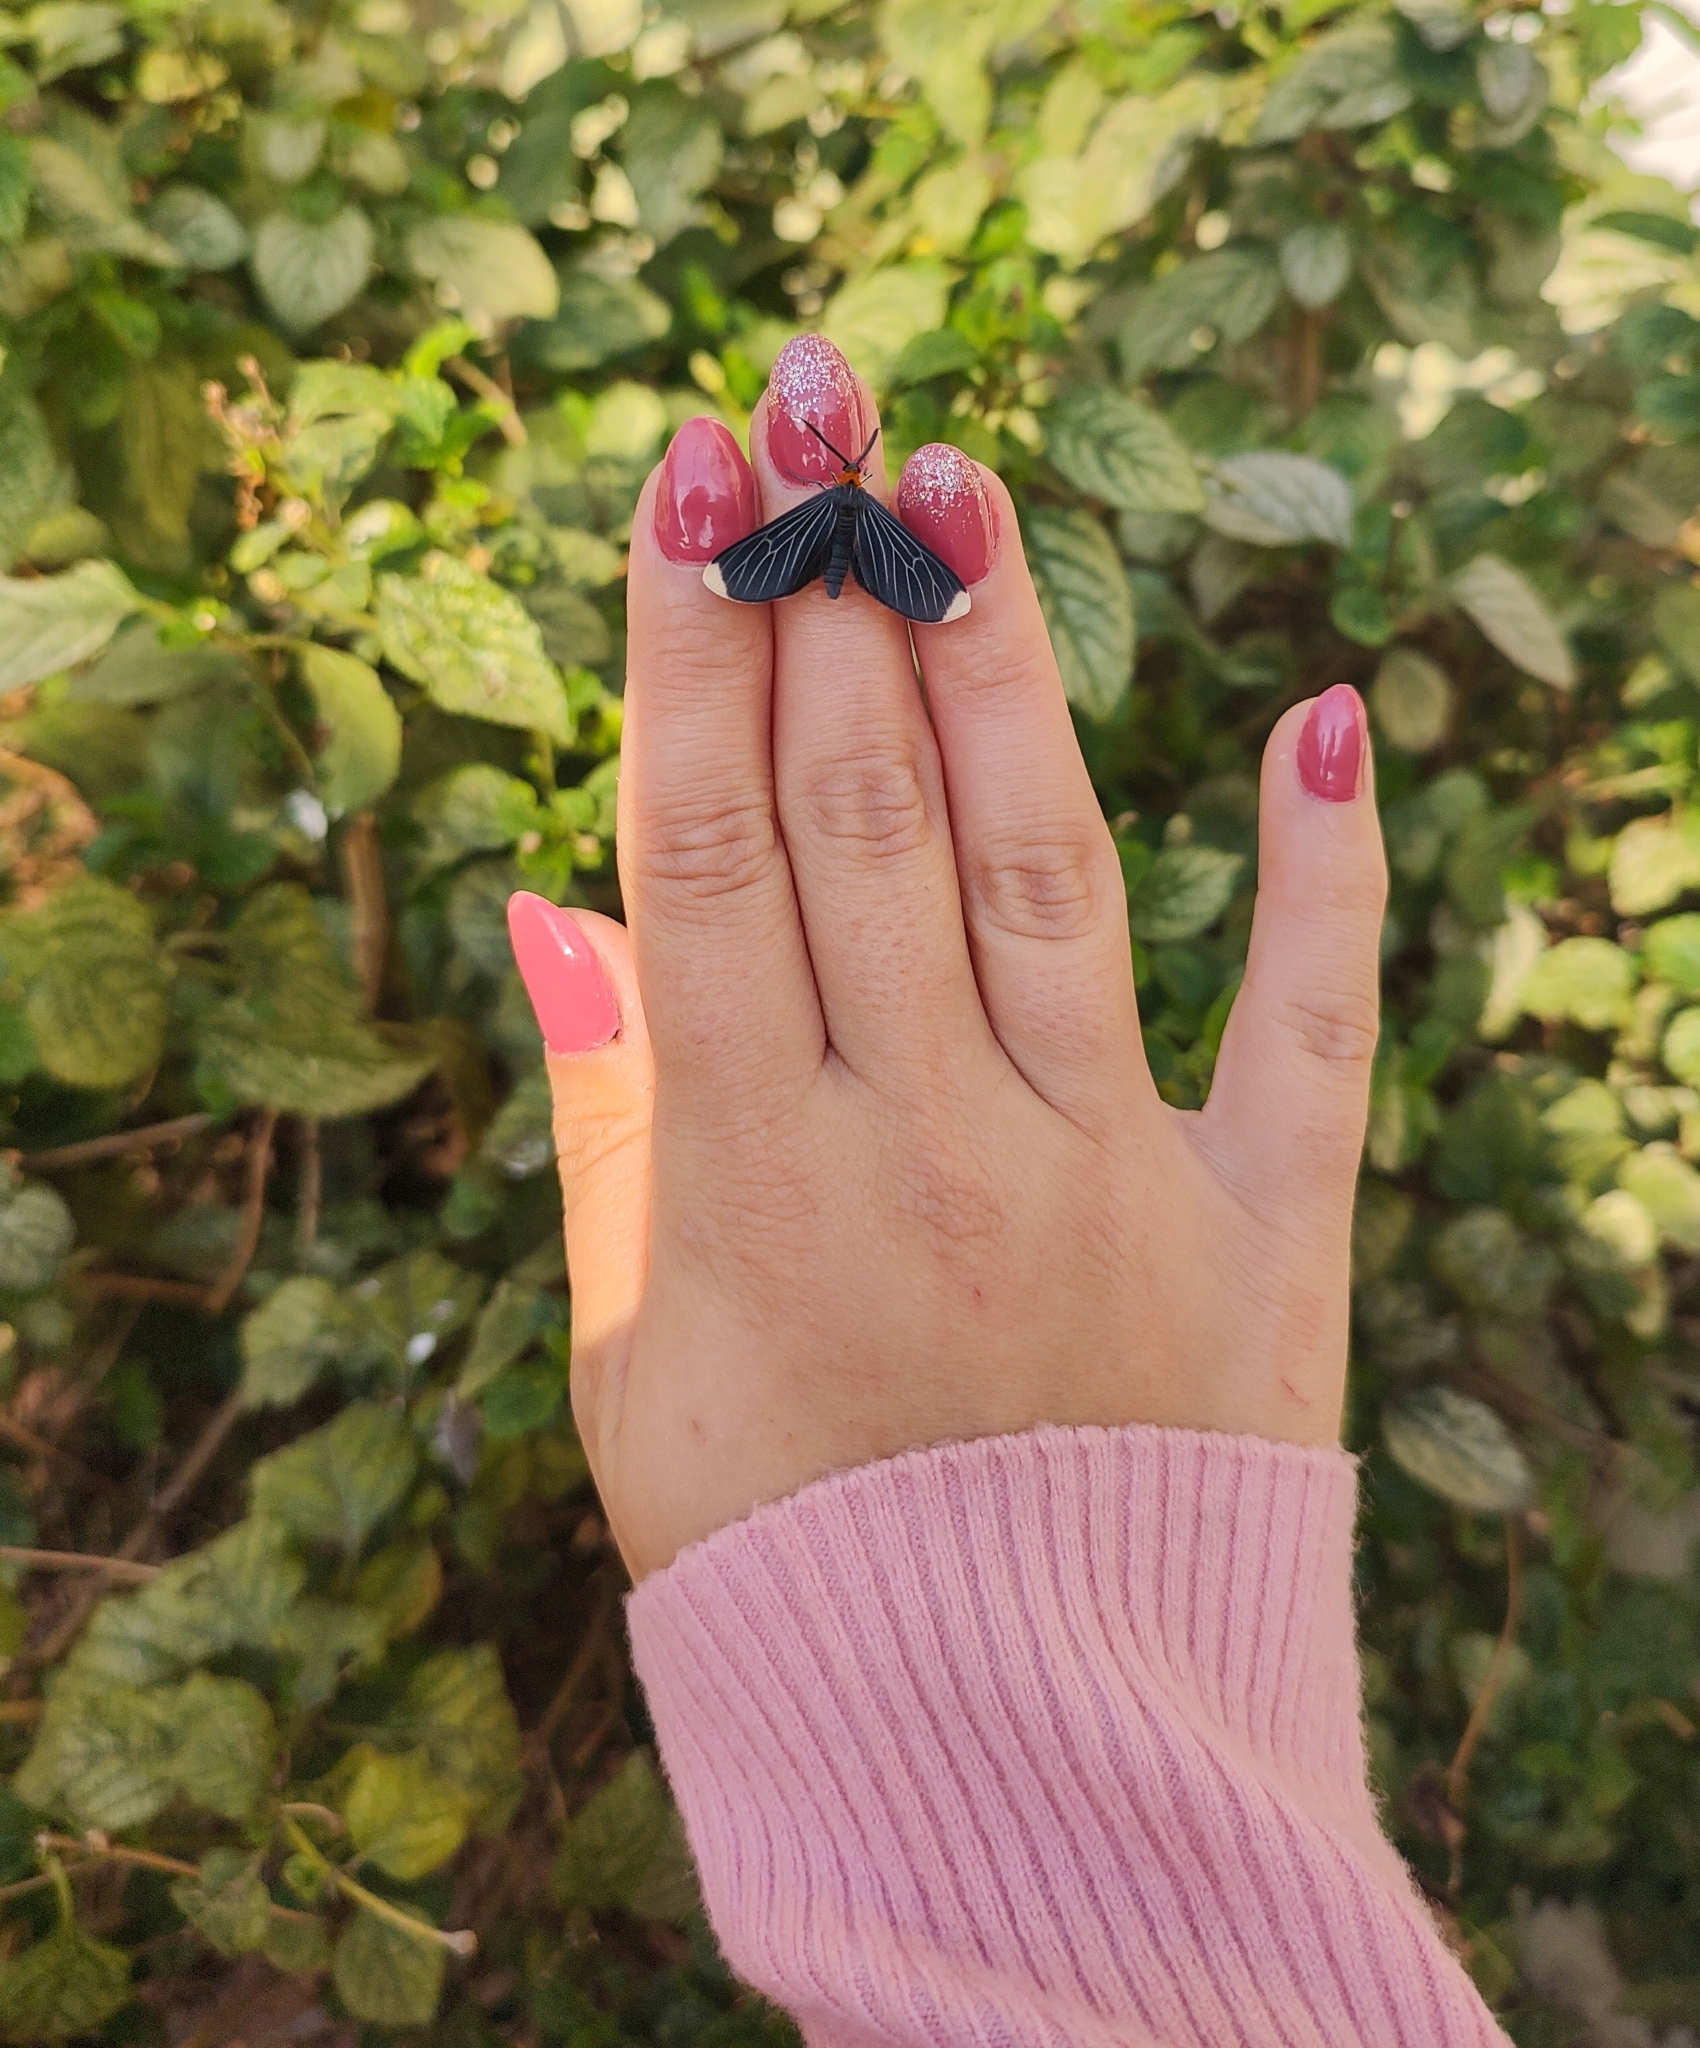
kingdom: Animalia
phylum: Arthropoda
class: Insecta
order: Lepidoptera
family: Geometridae
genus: Melanchroia
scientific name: Melanchroia chephise
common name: White-tipped black
